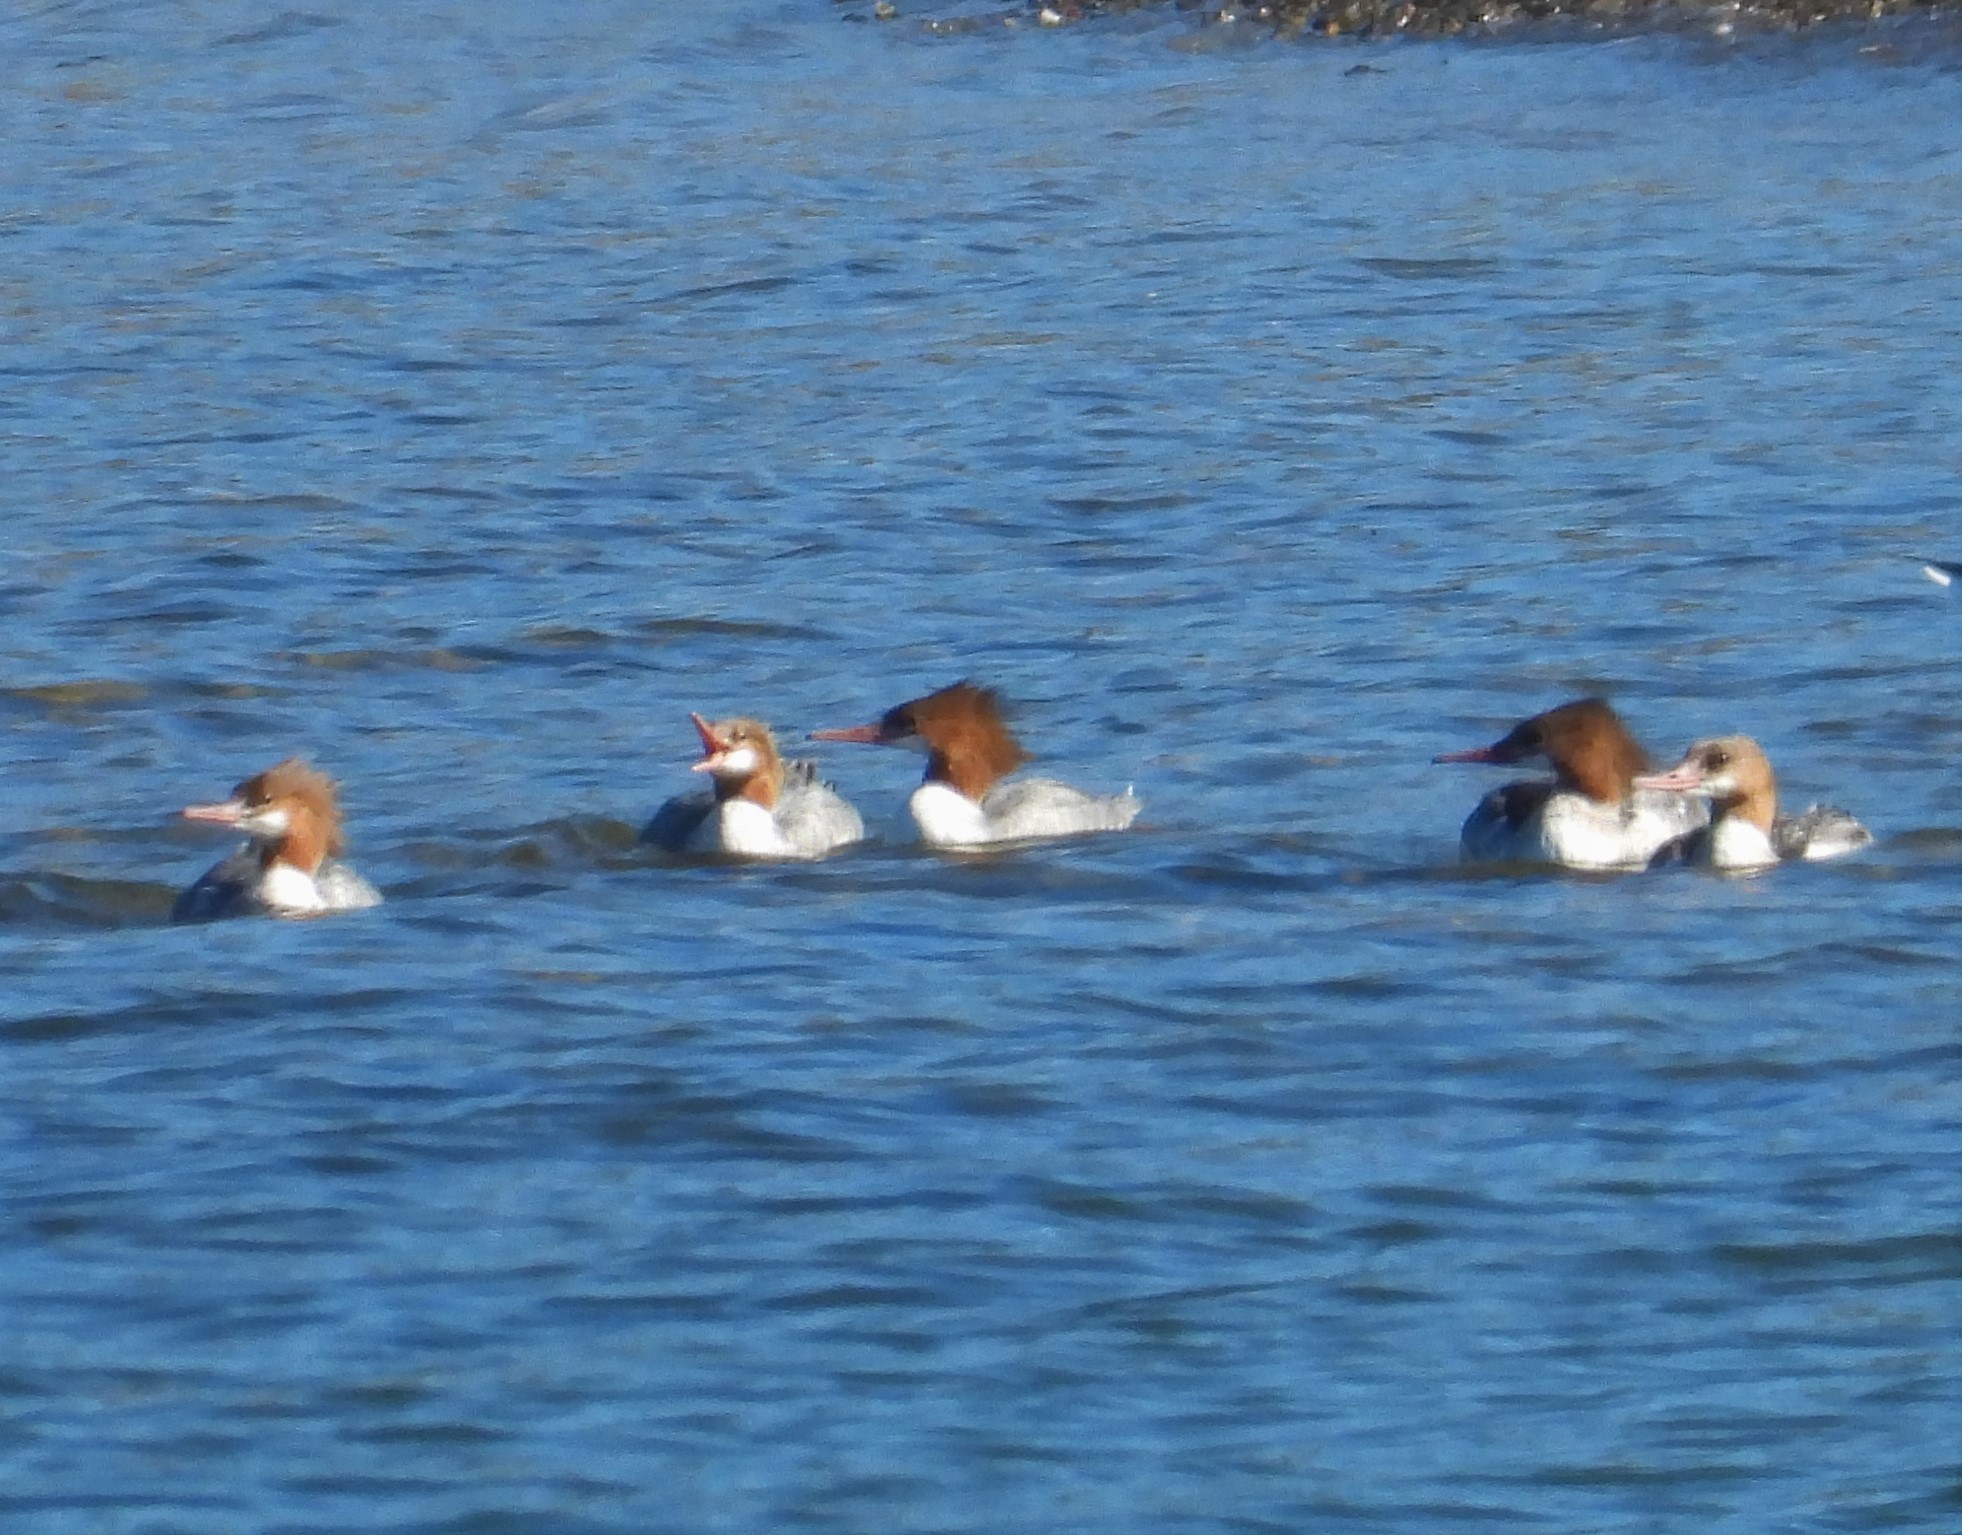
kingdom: Animalia
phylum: Chordata
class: Aves
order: Anseriformes
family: Anatidae
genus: Mergus
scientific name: Mergus merganser
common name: Common merganser
